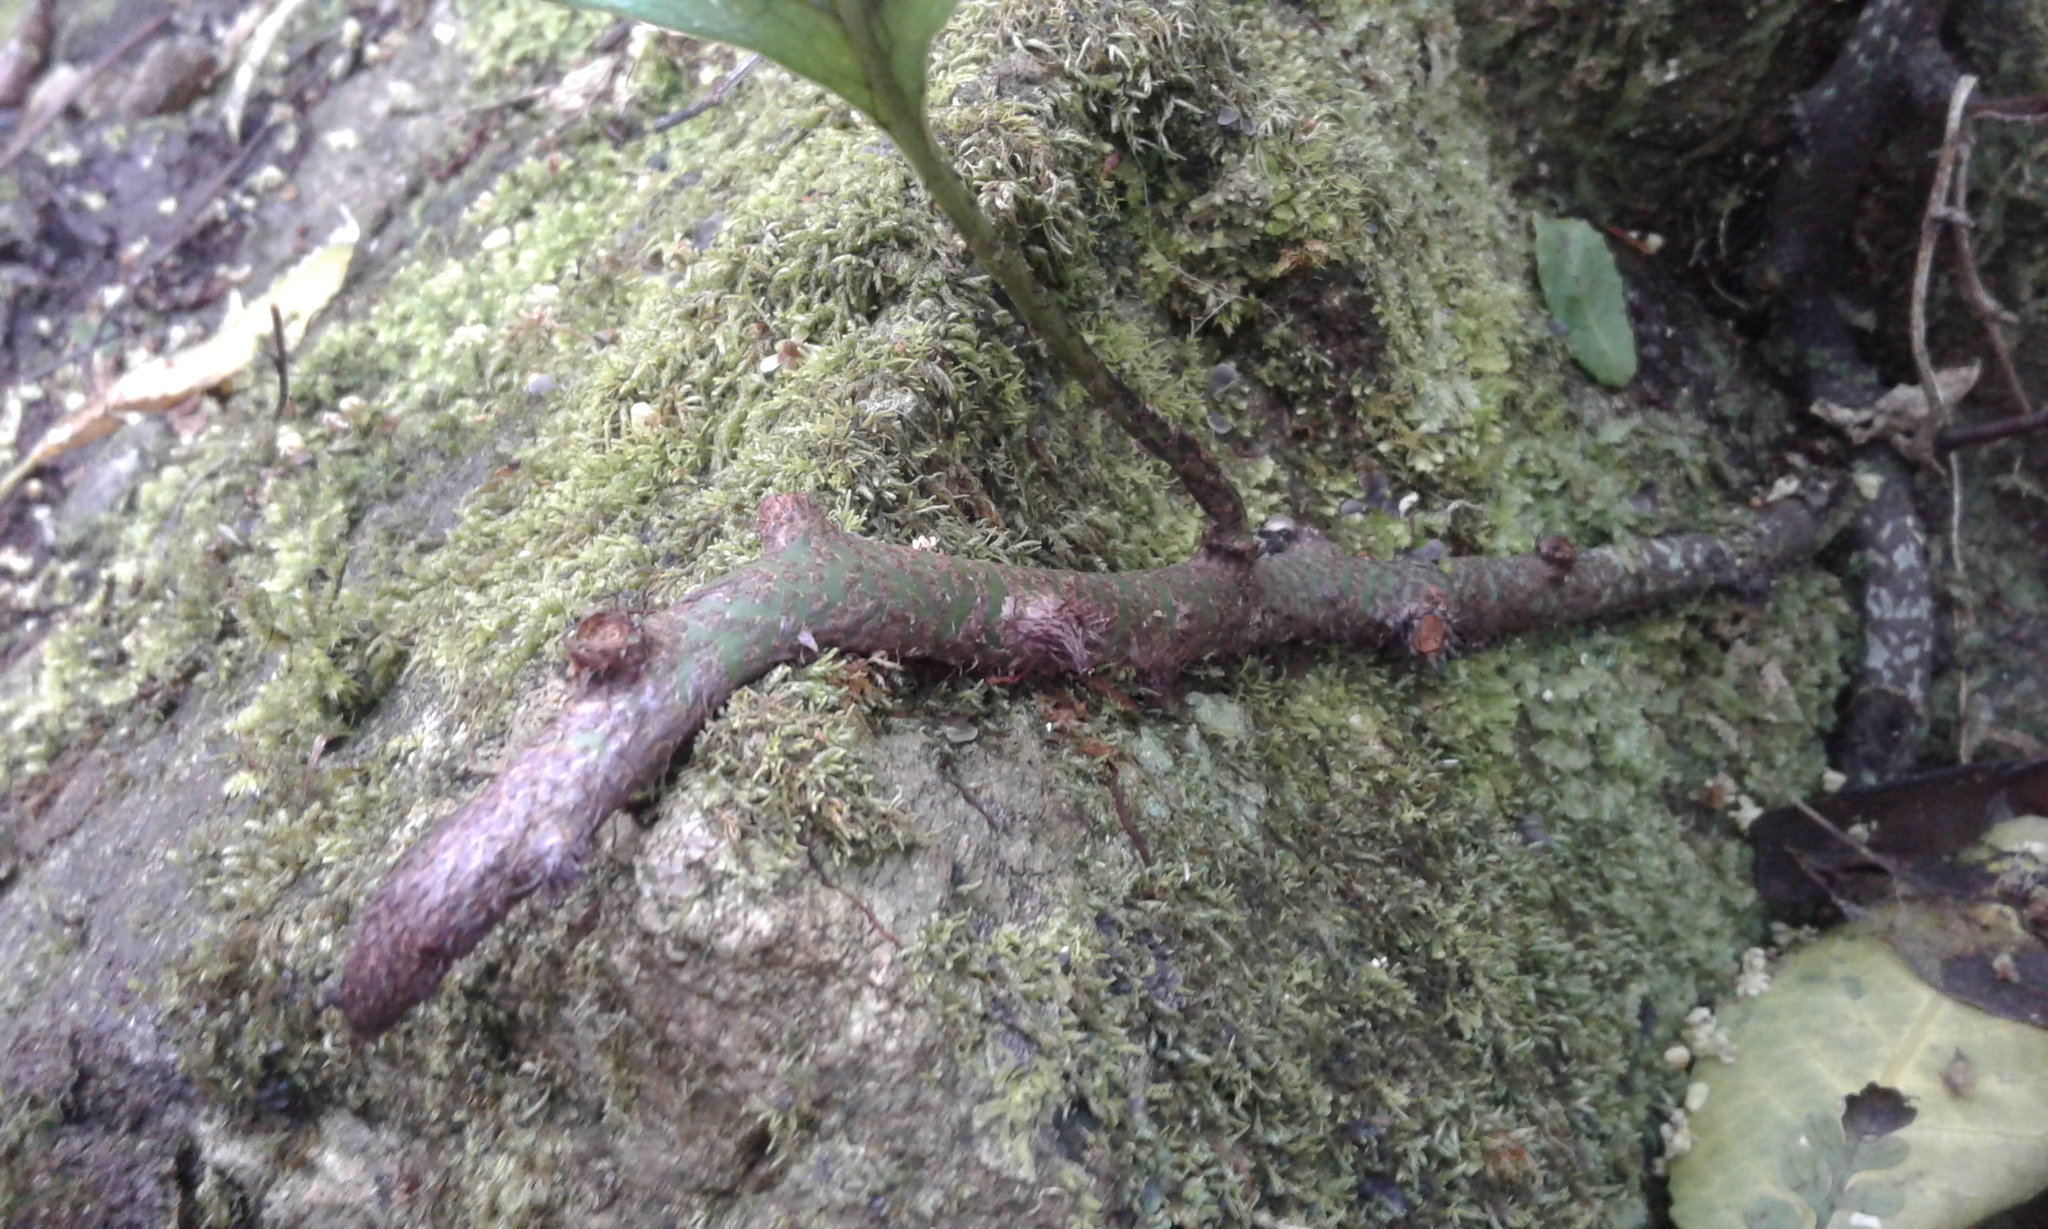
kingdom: Plantae
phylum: Tracheophyta
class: Polypodiopsida
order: Polypodiales
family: Polypodiaceae
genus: Lecanopteris
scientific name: Lecanopteris pustulata
